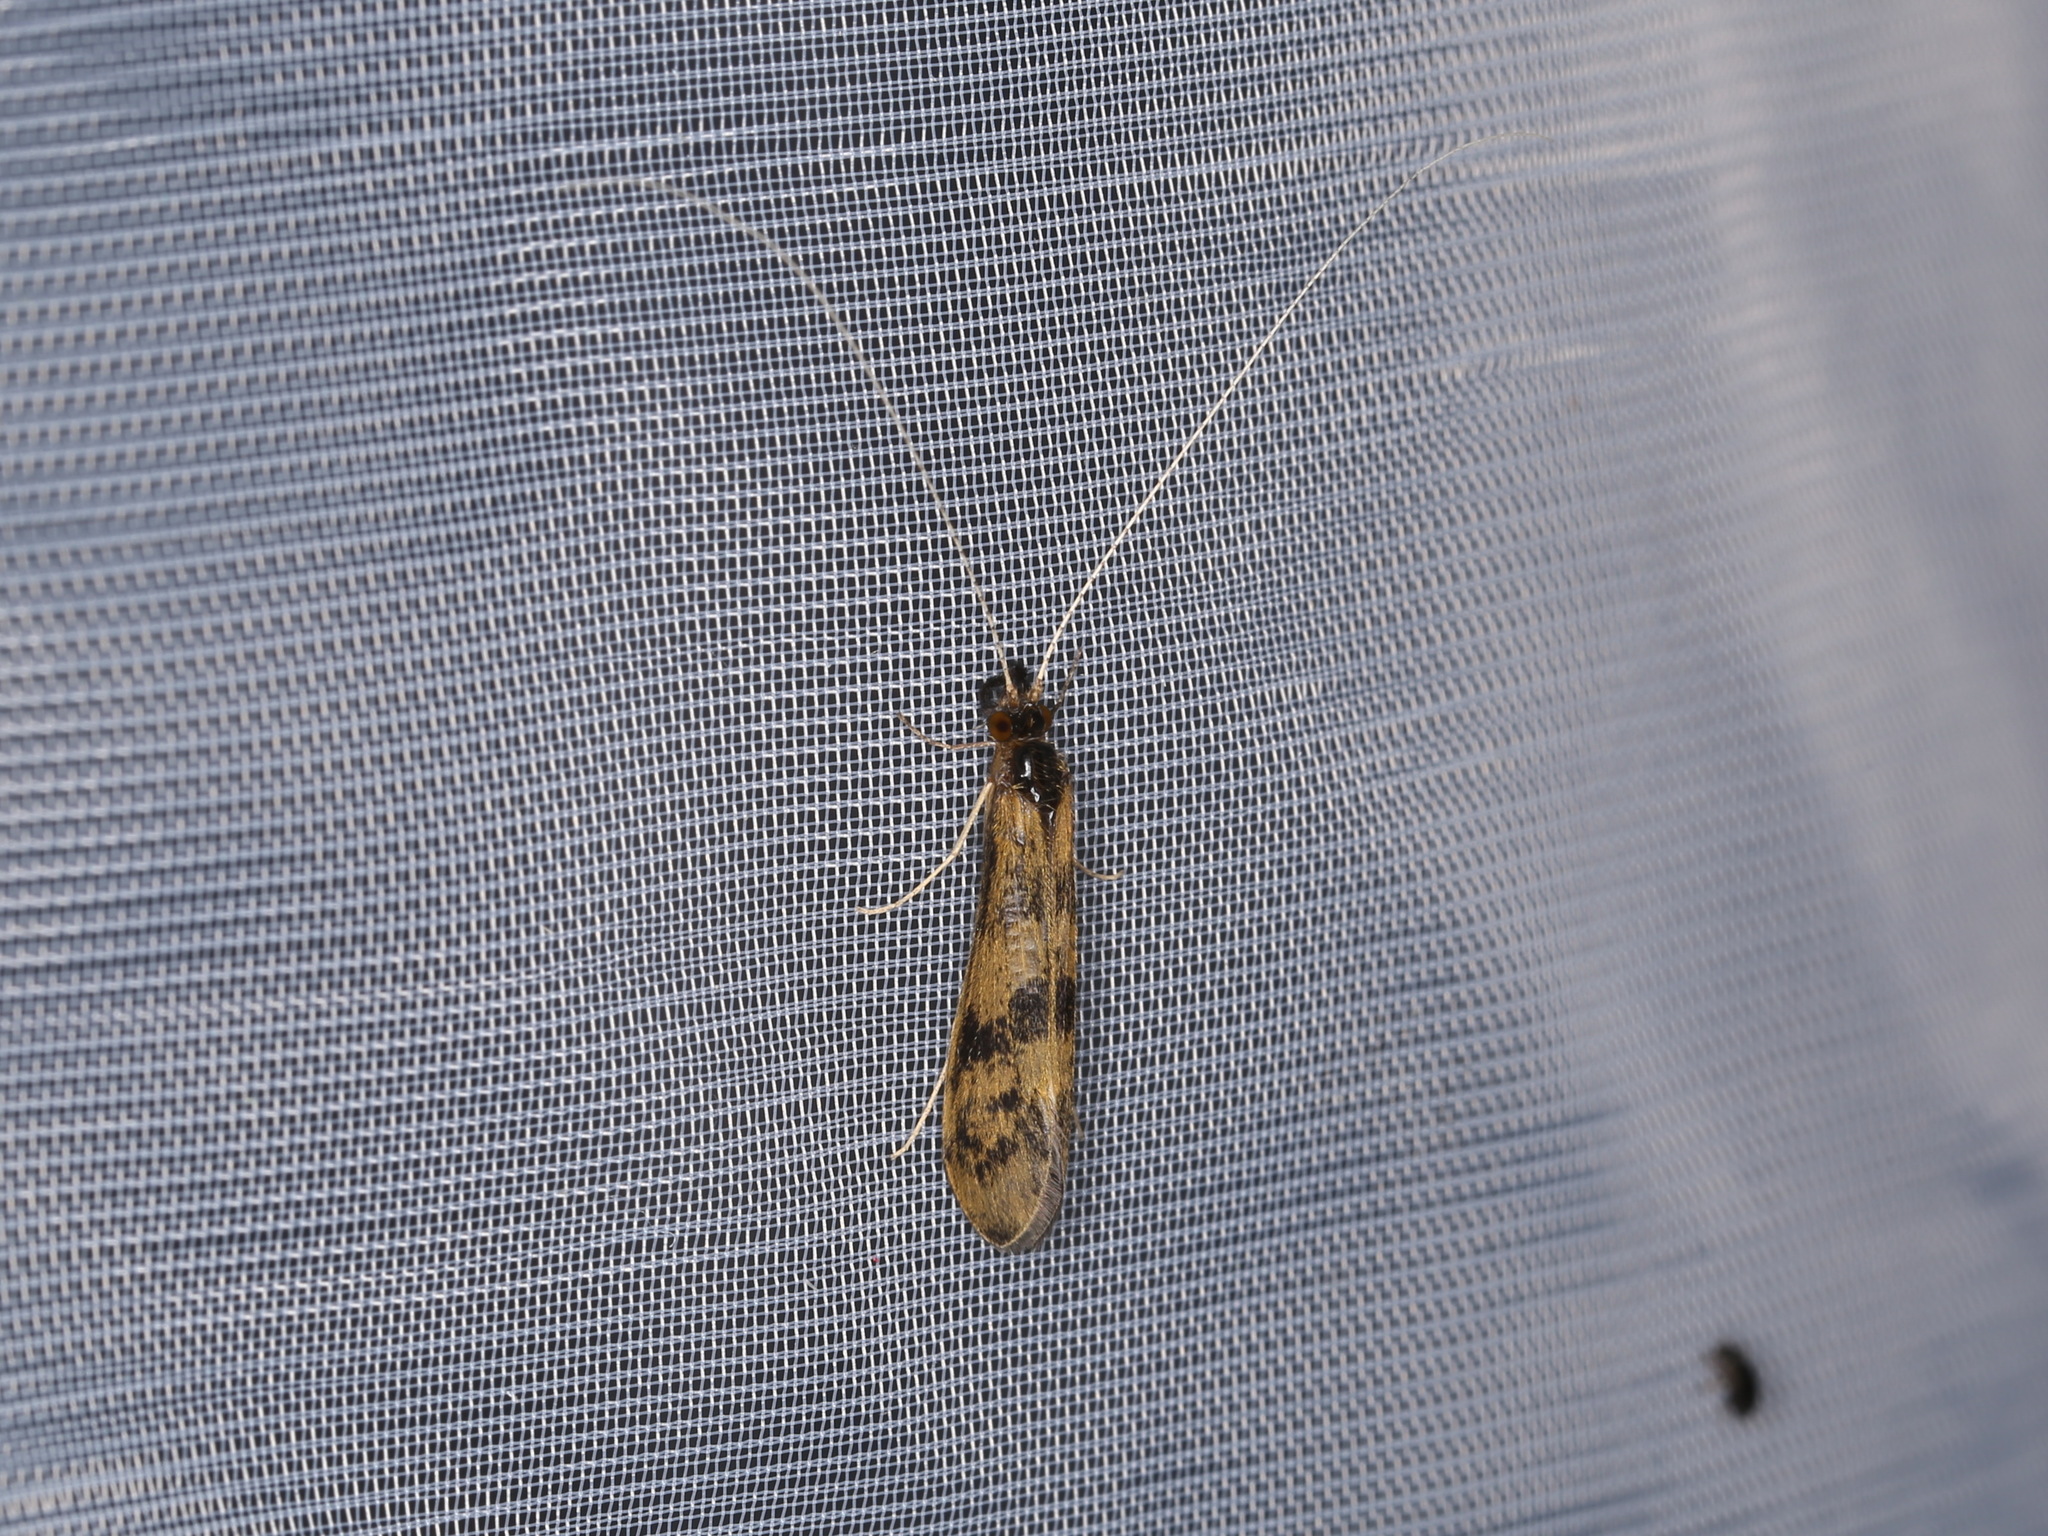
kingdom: Animalia
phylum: Arthropoda
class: Insecta
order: Trichoptera
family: Leptoceridae
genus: Mystacides
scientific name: Mystacides longicornis
